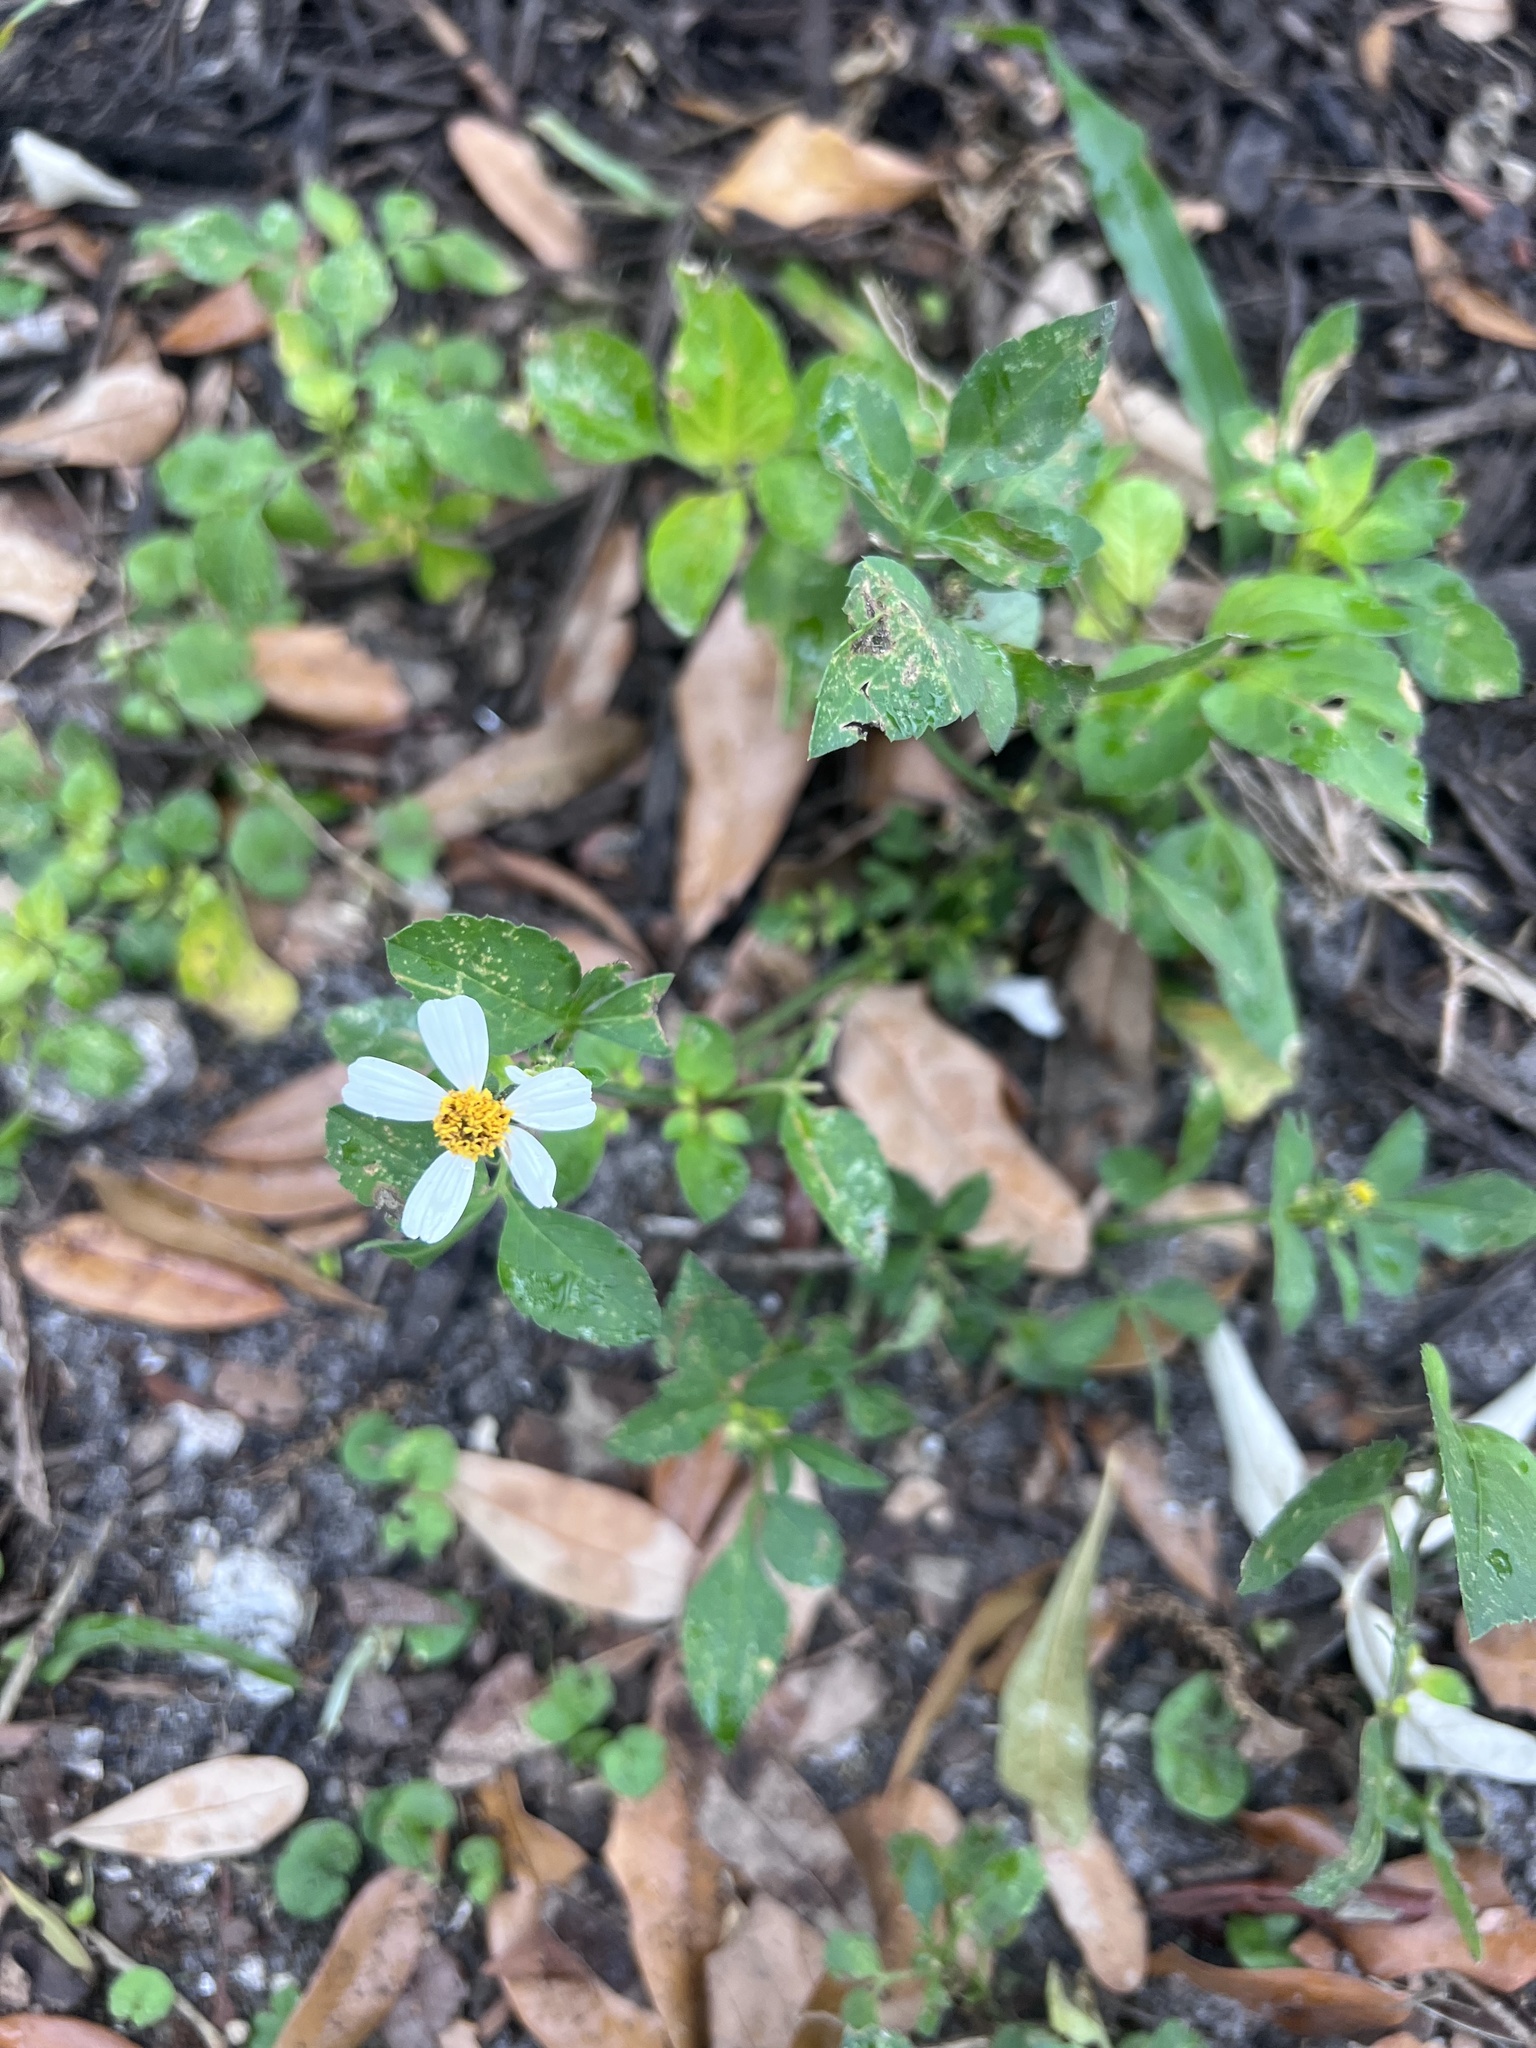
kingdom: Plantae
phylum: Tracheophyta
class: Magnoliopsida
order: Asterales
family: Asteraceae
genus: Bidens
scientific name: Bidens alba
